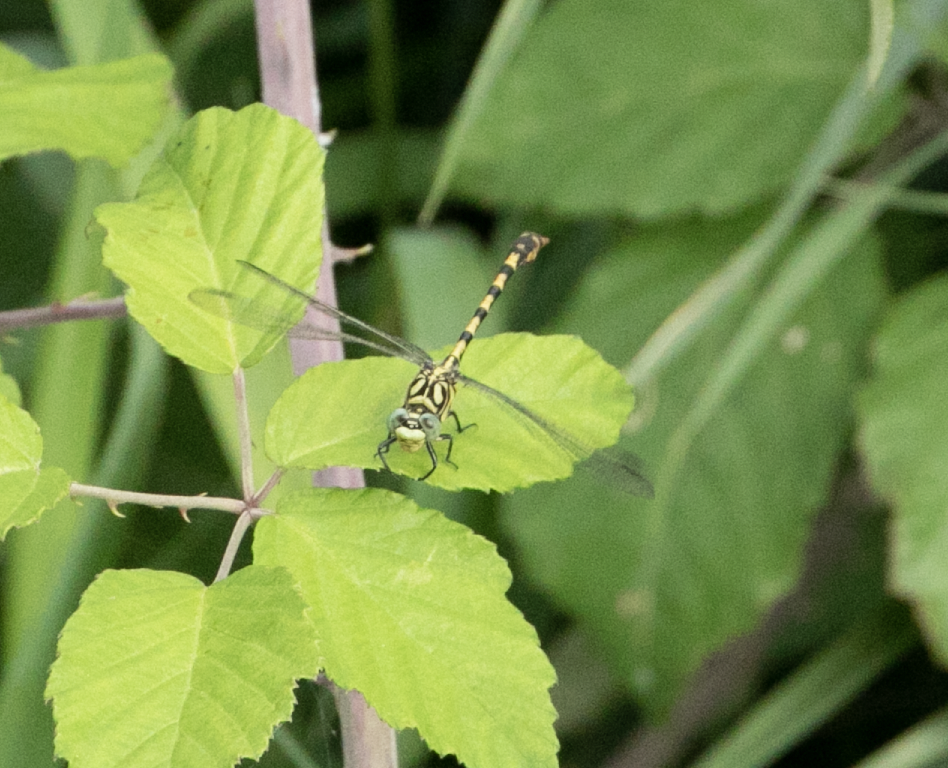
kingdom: Animalia
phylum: Arthropoda
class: Insecta
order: Odonata
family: Gomphidae
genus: Onychogomphus
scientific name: Onychogomphus forcipatus
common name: Small pincertail
